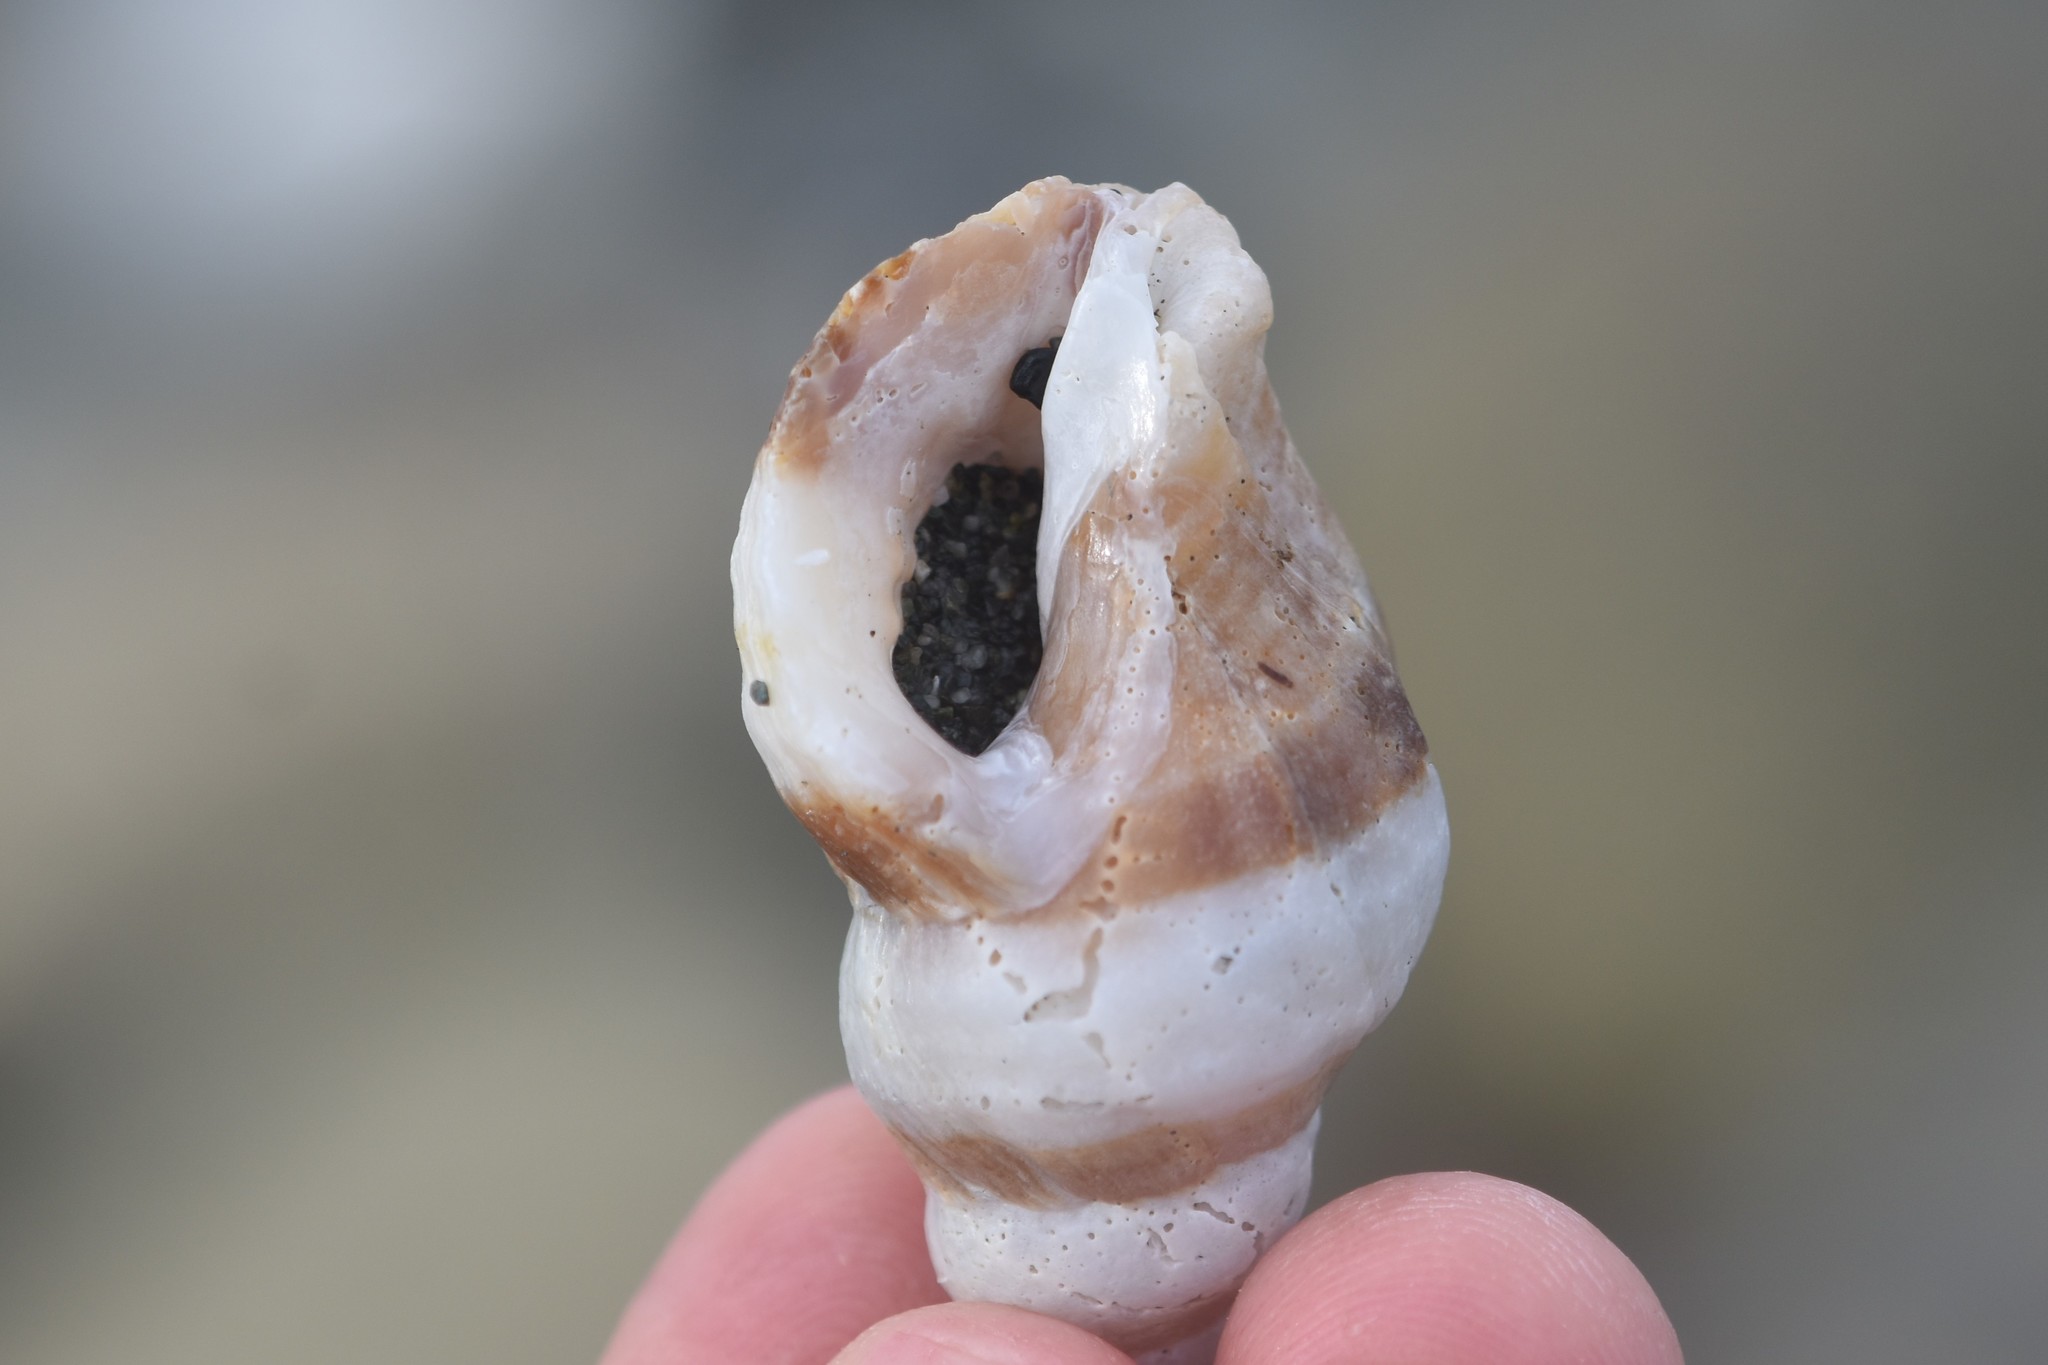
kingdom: Animalia
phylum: Mollusca
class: Gastropoda
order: Neogastropoda
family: Muricidae
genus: Nucella
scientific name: Nucella lamellosa
